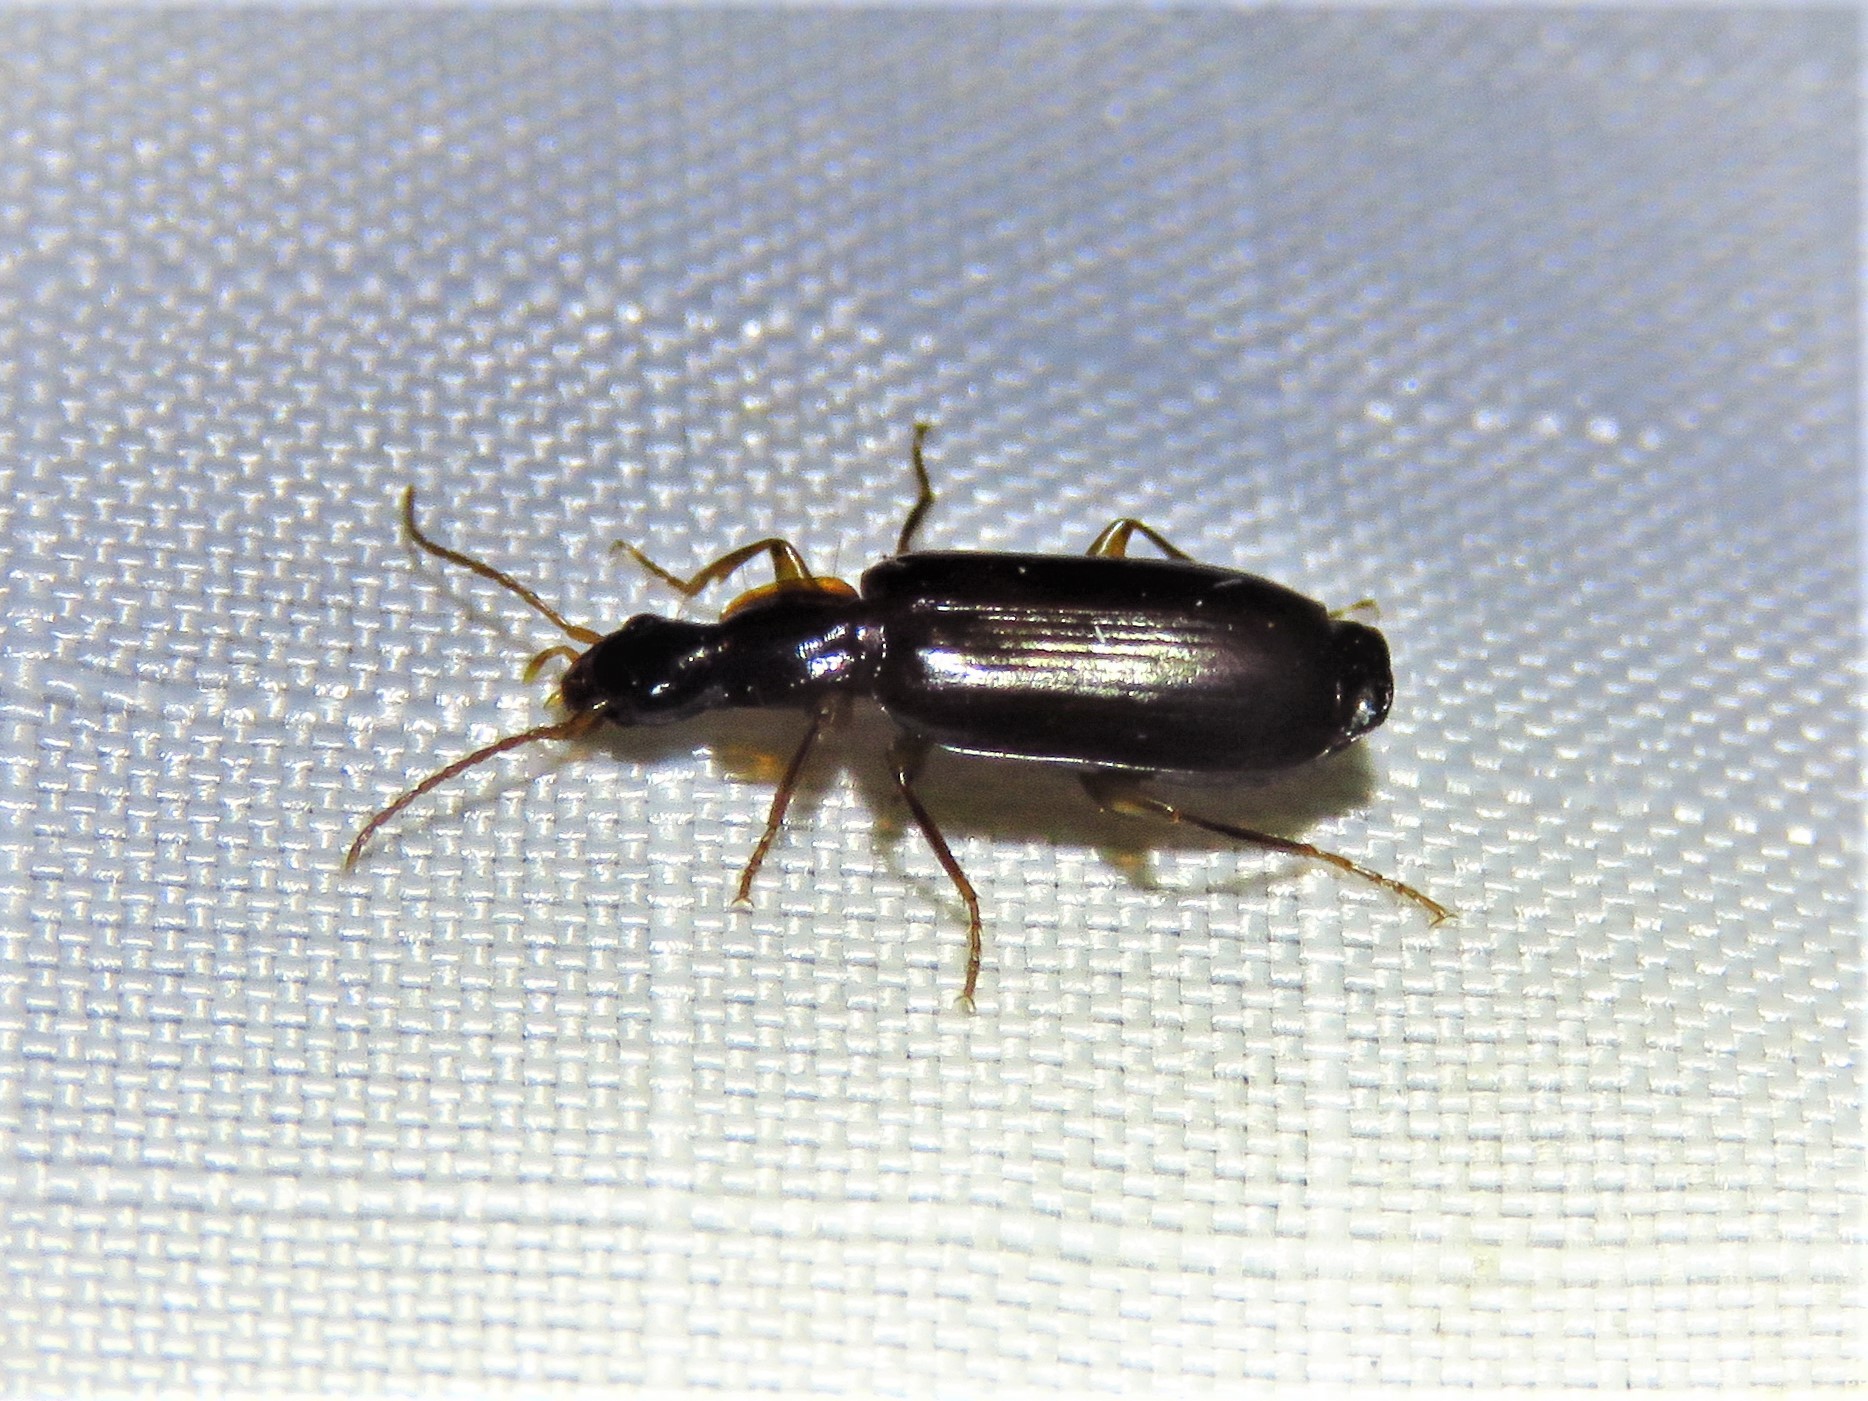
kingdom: Animalia
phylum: Arthropoda
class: Insecta
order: Coleoptera
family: Carabidae
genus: Dromius
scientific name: Dromius piceus
